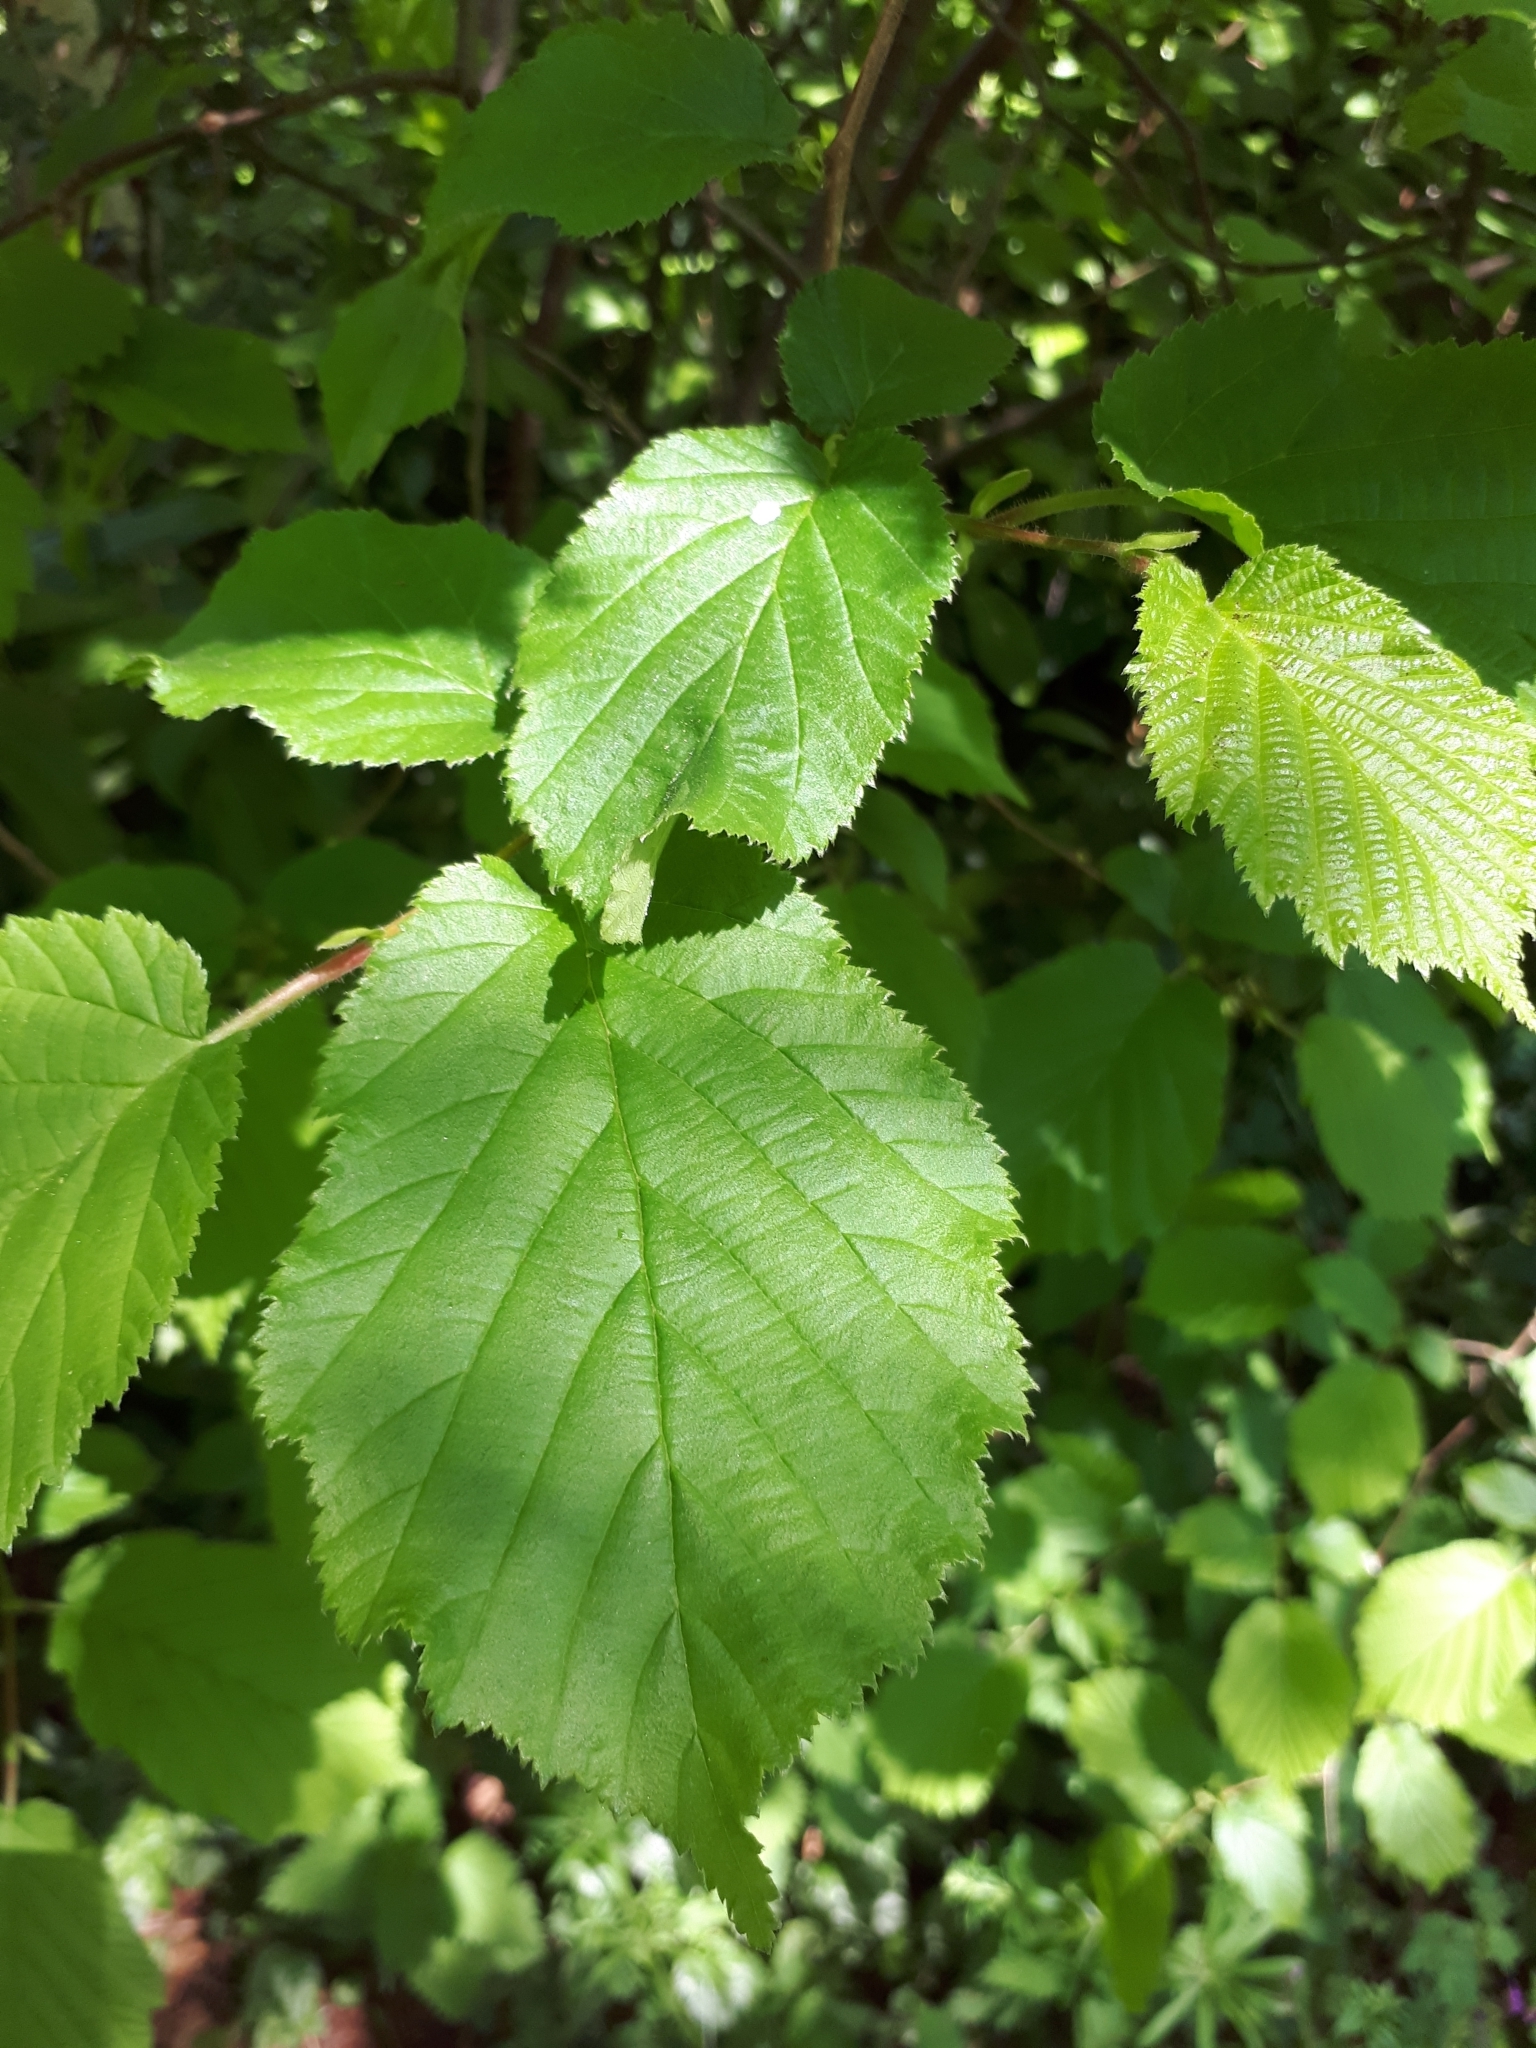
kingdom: Plantae
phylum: Tracheophyta
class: Magnoliopsida
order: Fagales
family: Betulaceae
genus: Corylus
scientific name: Corylus avellana
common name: European hazel
